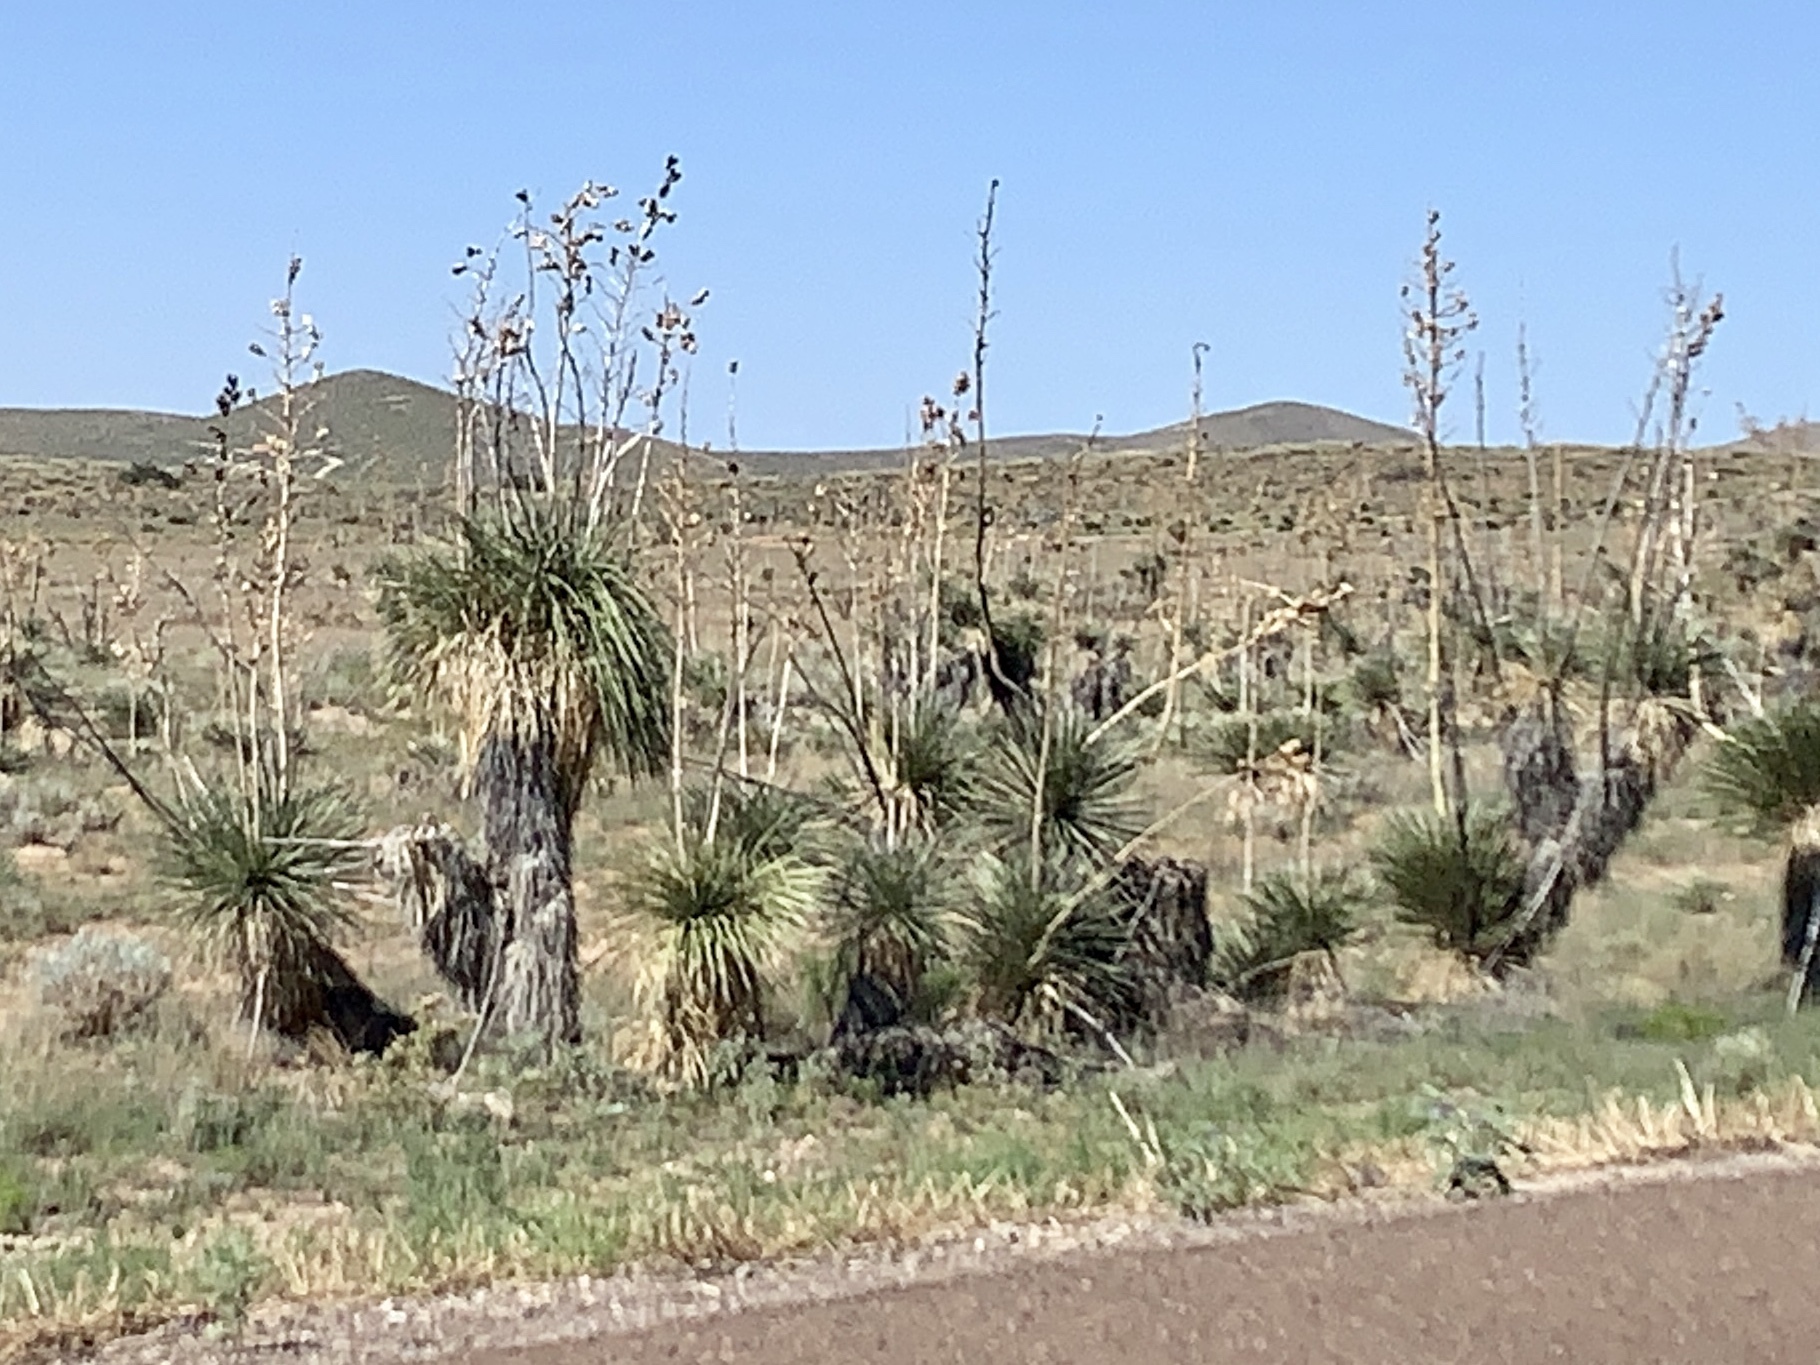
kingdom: Plantae
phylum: Tracheophyta
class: Liliopsida
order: Asparagales
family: Asparagaceae
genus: Yucca
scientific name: Yucca elata
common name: Palmella
